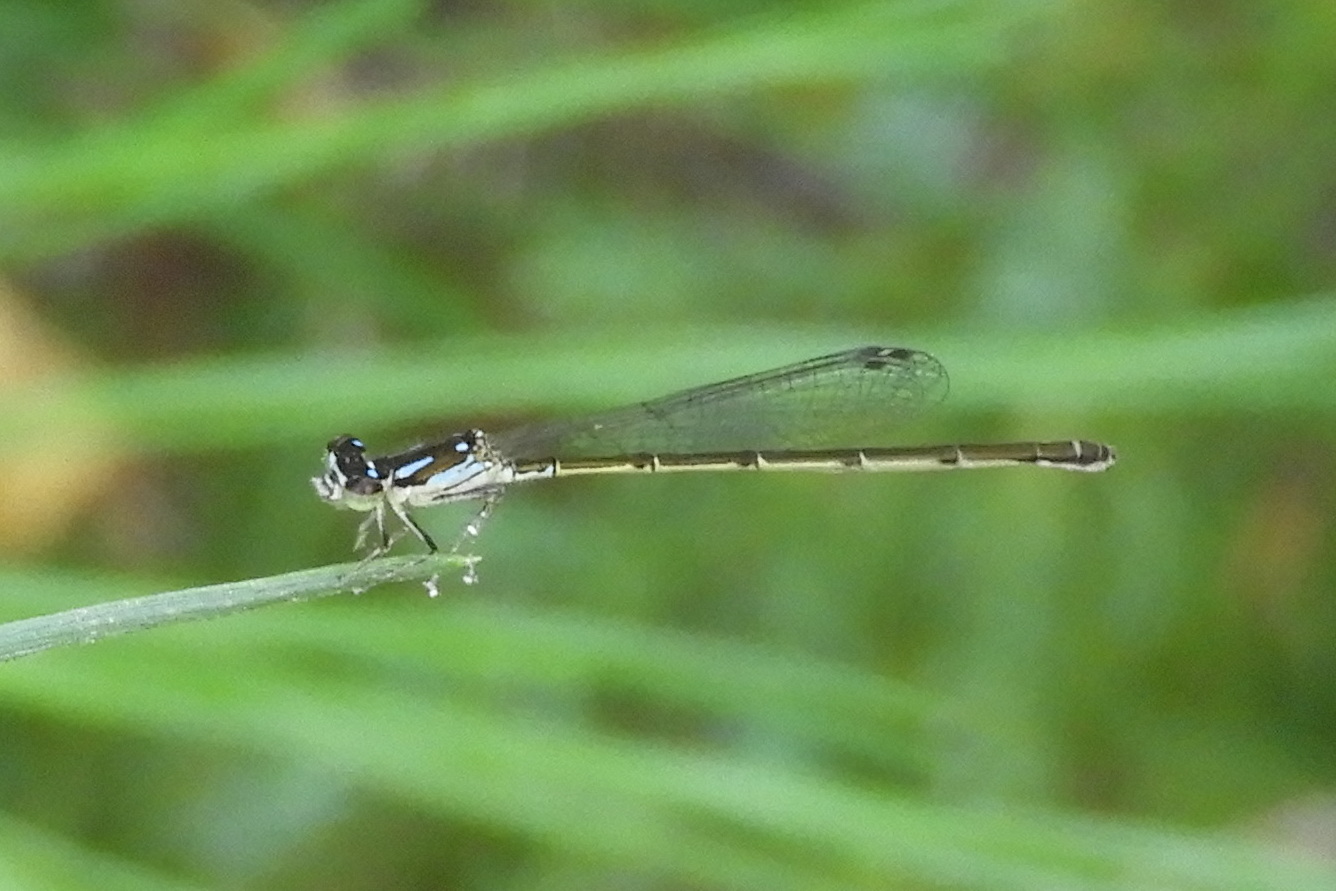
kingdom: Animalia
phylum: Arthropoda
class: Insecta
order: Odonata
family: Coenagrionidae
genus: Ischnura
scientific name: Ischnura posita
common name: Fragile forktail
